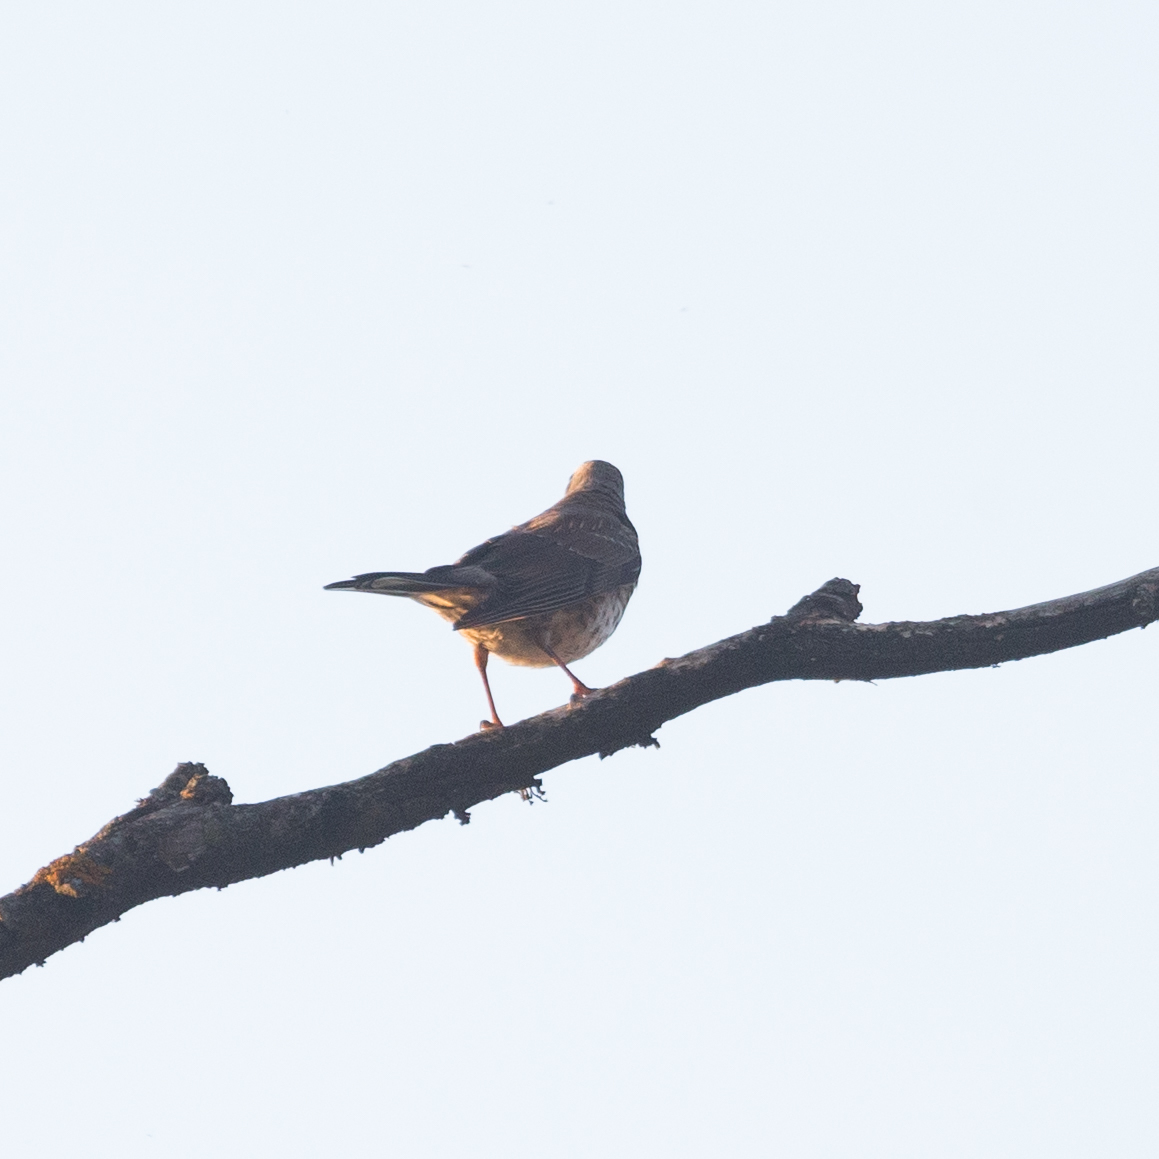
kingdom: Animalia
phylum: Chordata
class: Aves
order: Passeriformes
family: Turdidae
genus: Turdus
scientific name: Turdus pilaris
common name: Fieldfare
